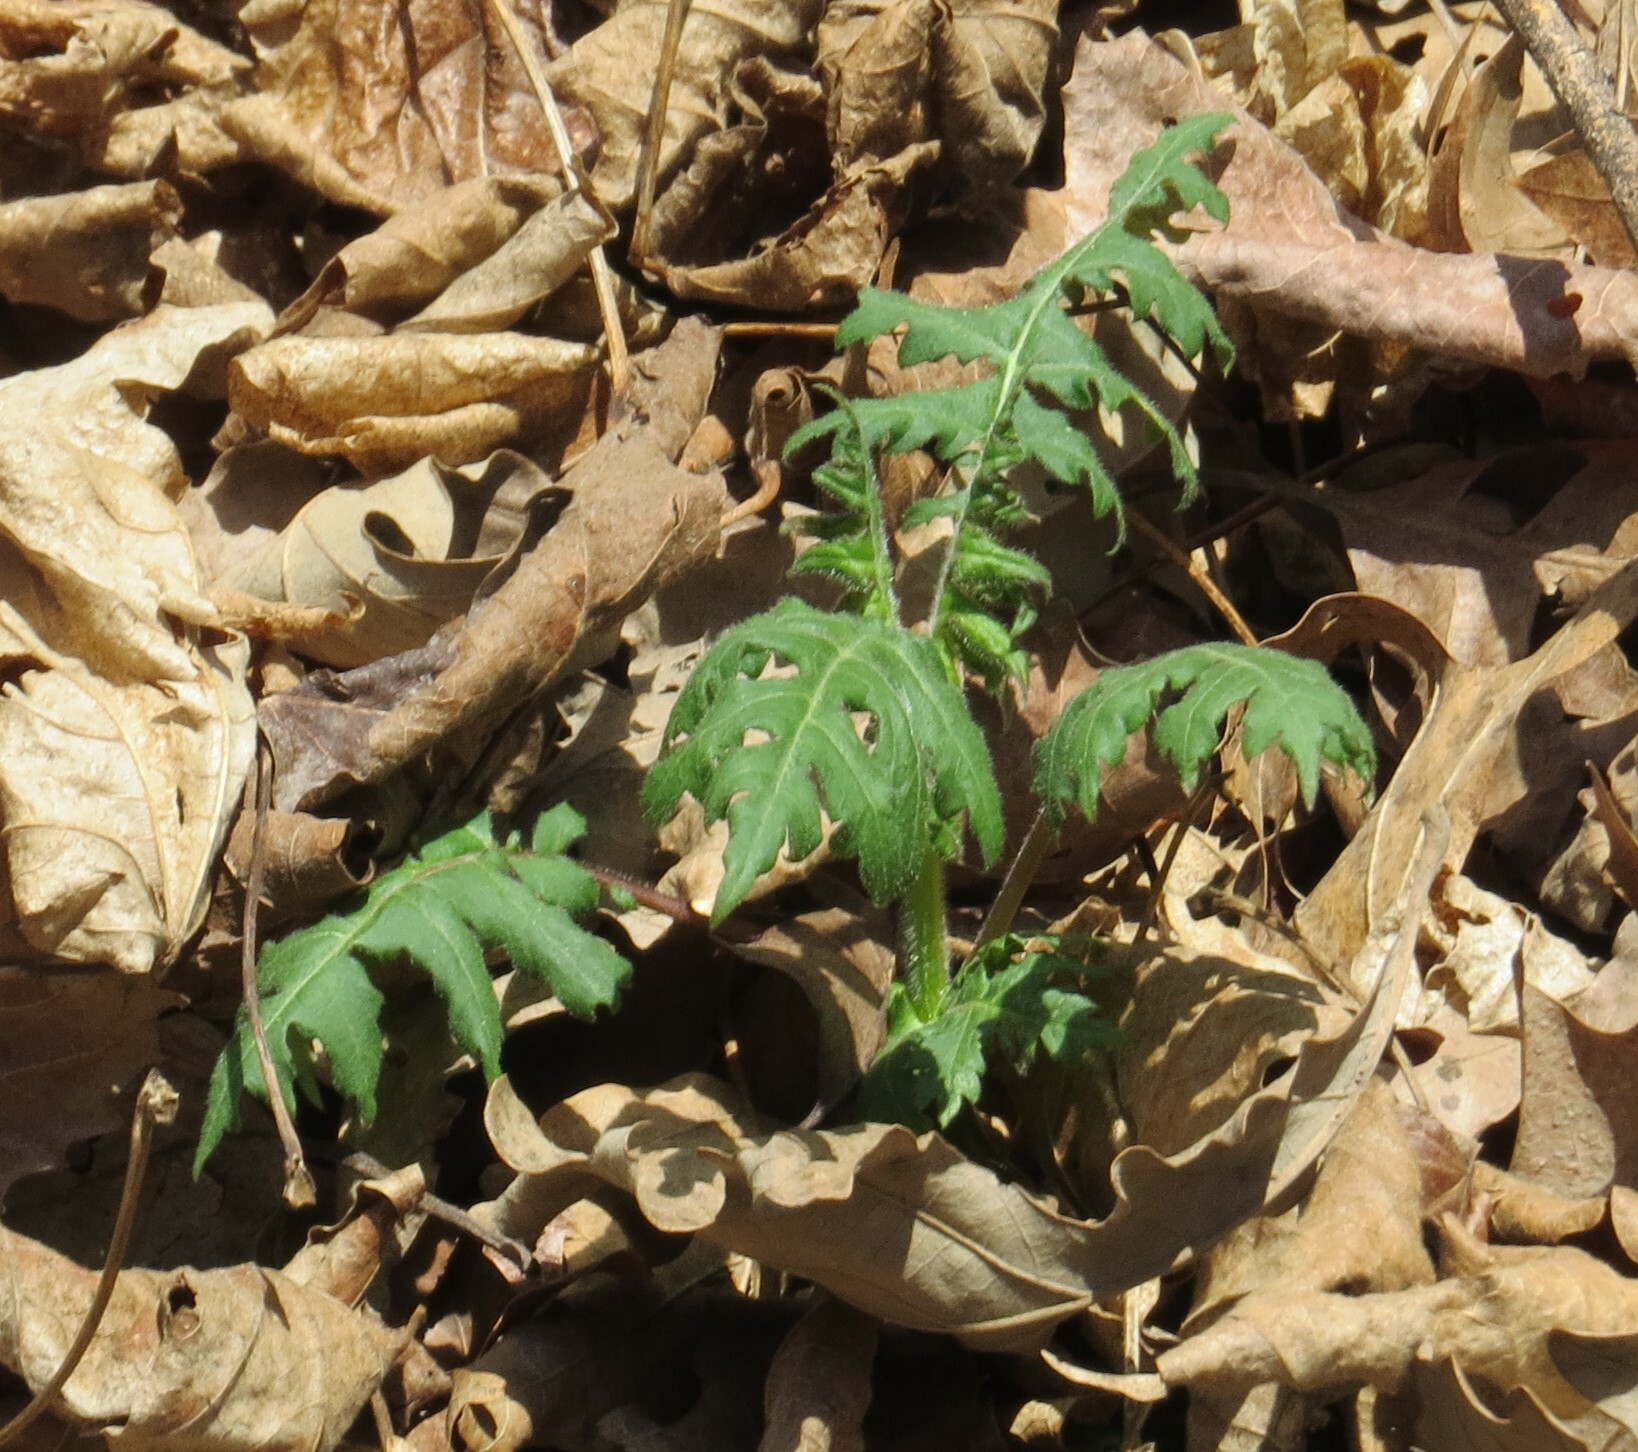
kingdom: Plantae
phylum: Tracheophyta
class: Magnoliopsida
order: Asterales
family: Asteraceae
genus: Polymnia
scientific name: Polymnia canadensis
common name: Pale-flowered leafcup
